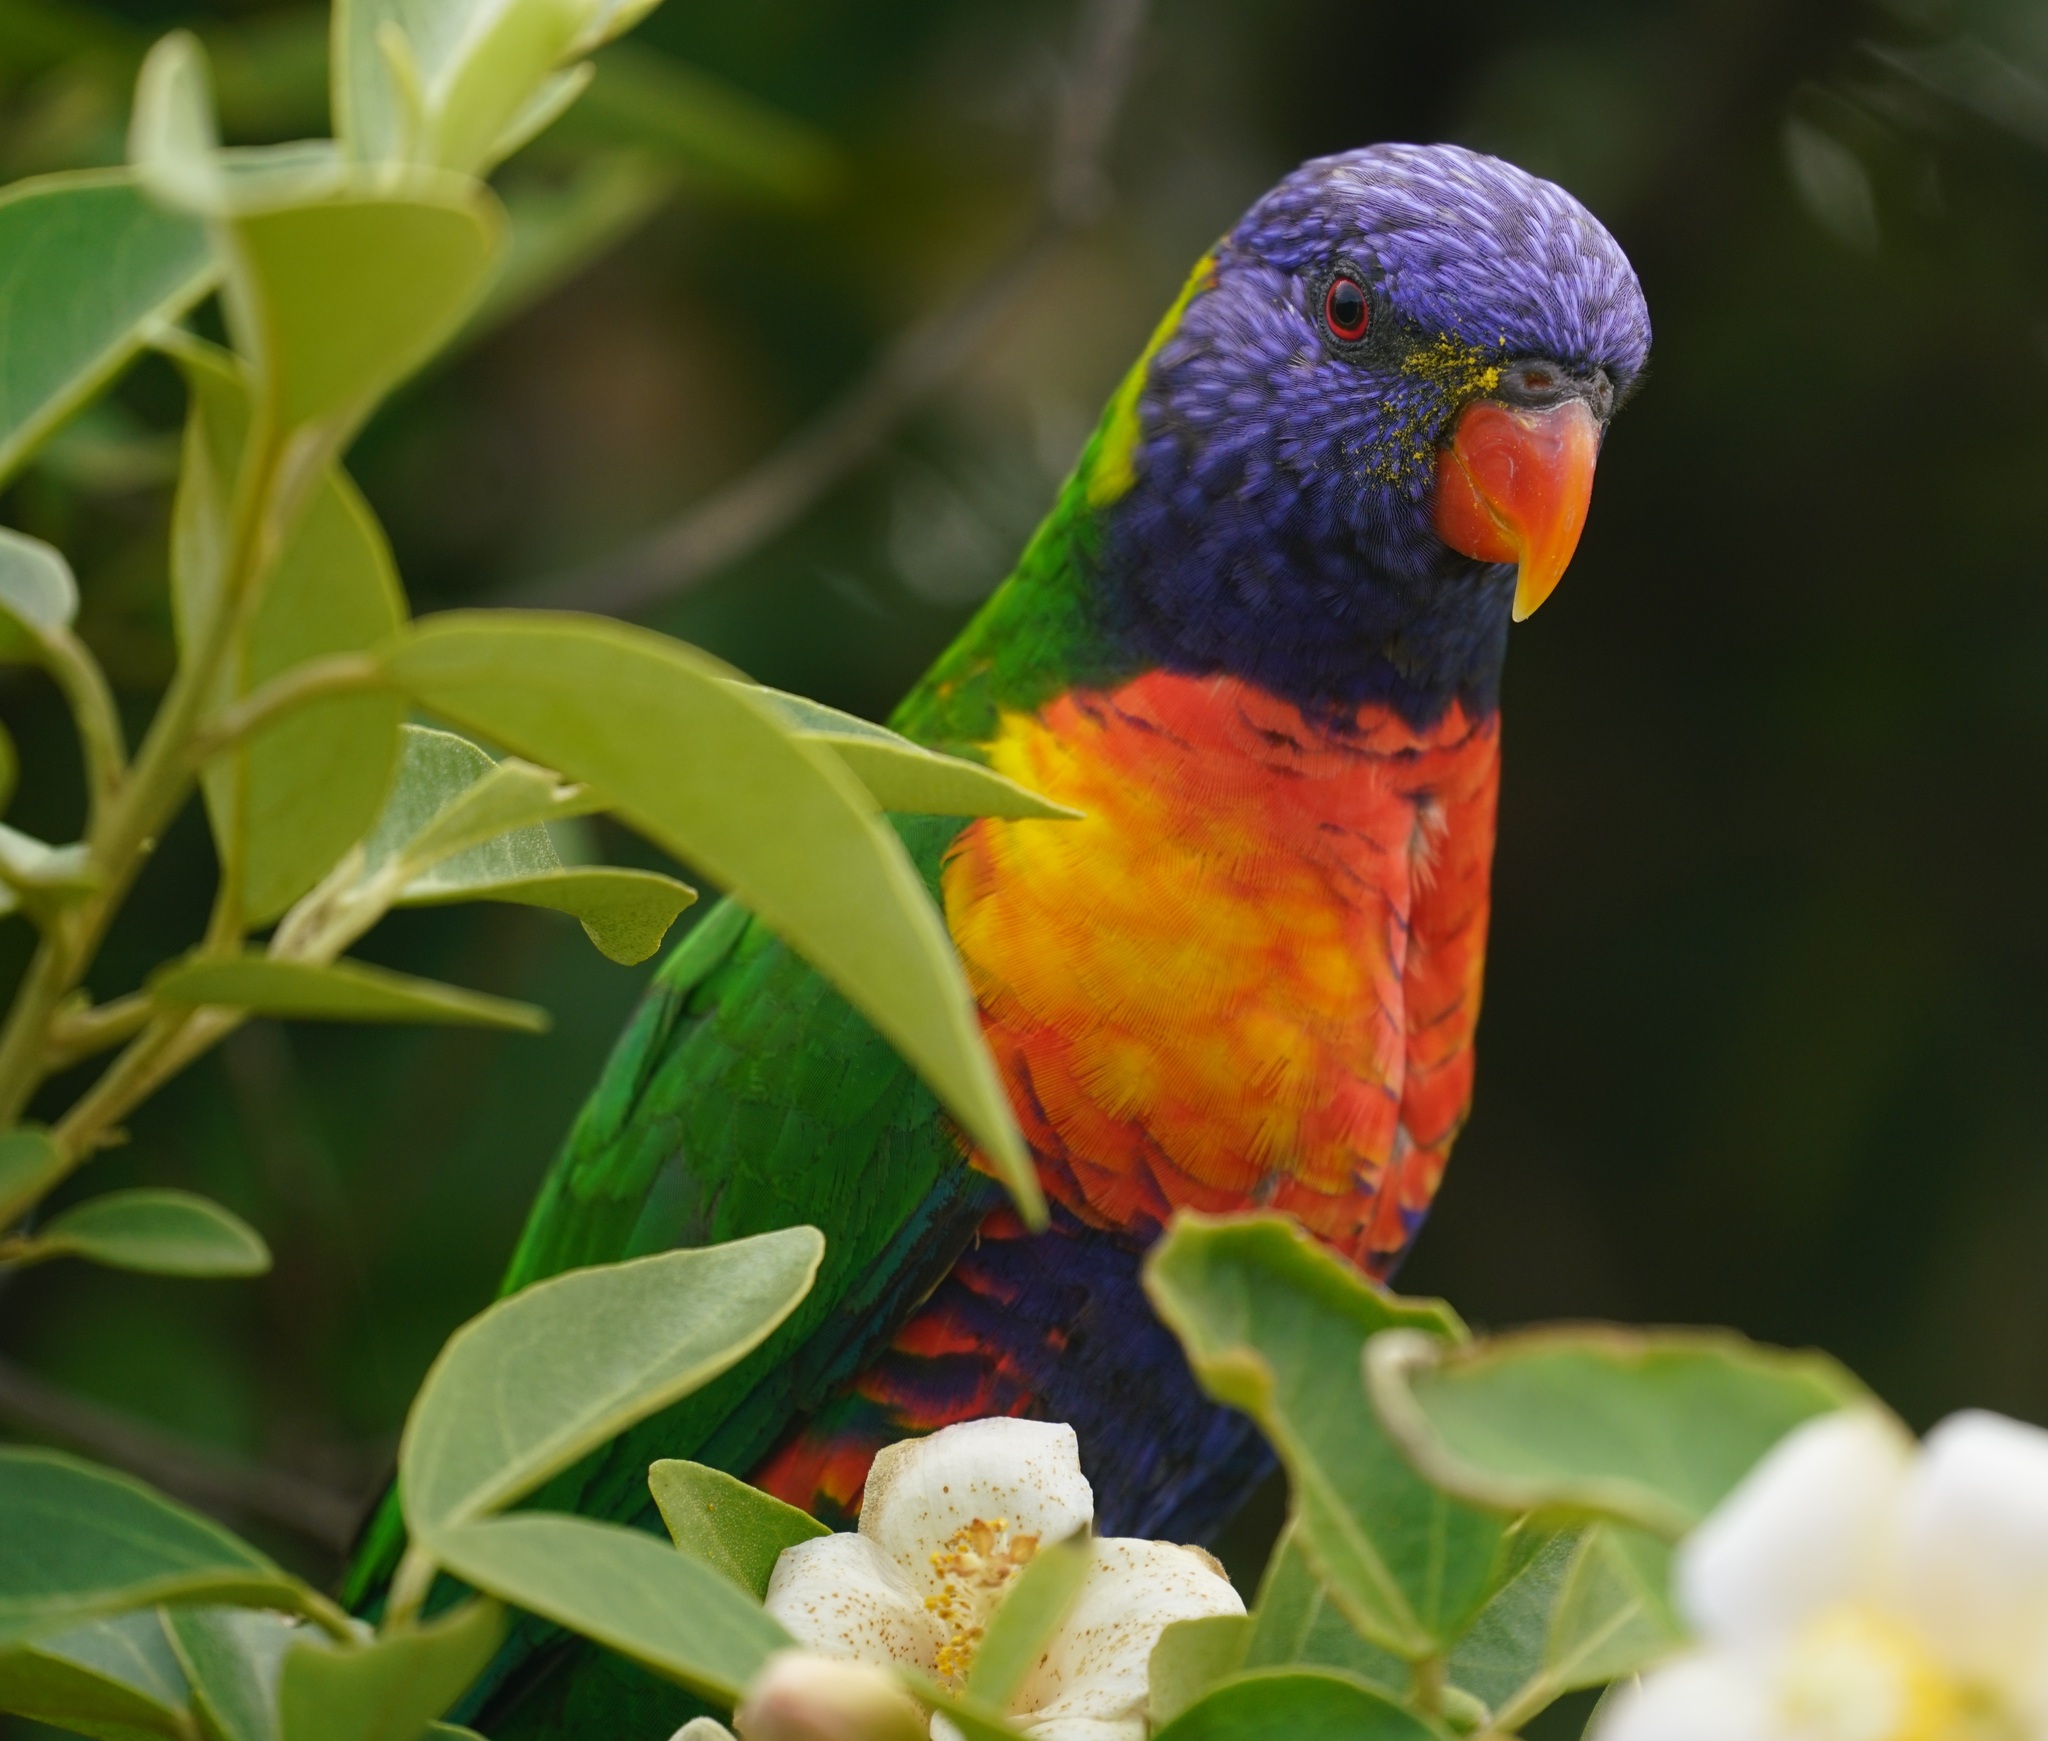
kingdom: Animalia
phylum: Chordata
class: Aves
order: Psittaciformes
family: Psittacidae
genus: Trichoglossus
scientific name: Trichoglossus haematodus
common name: Coconut lorikeet
